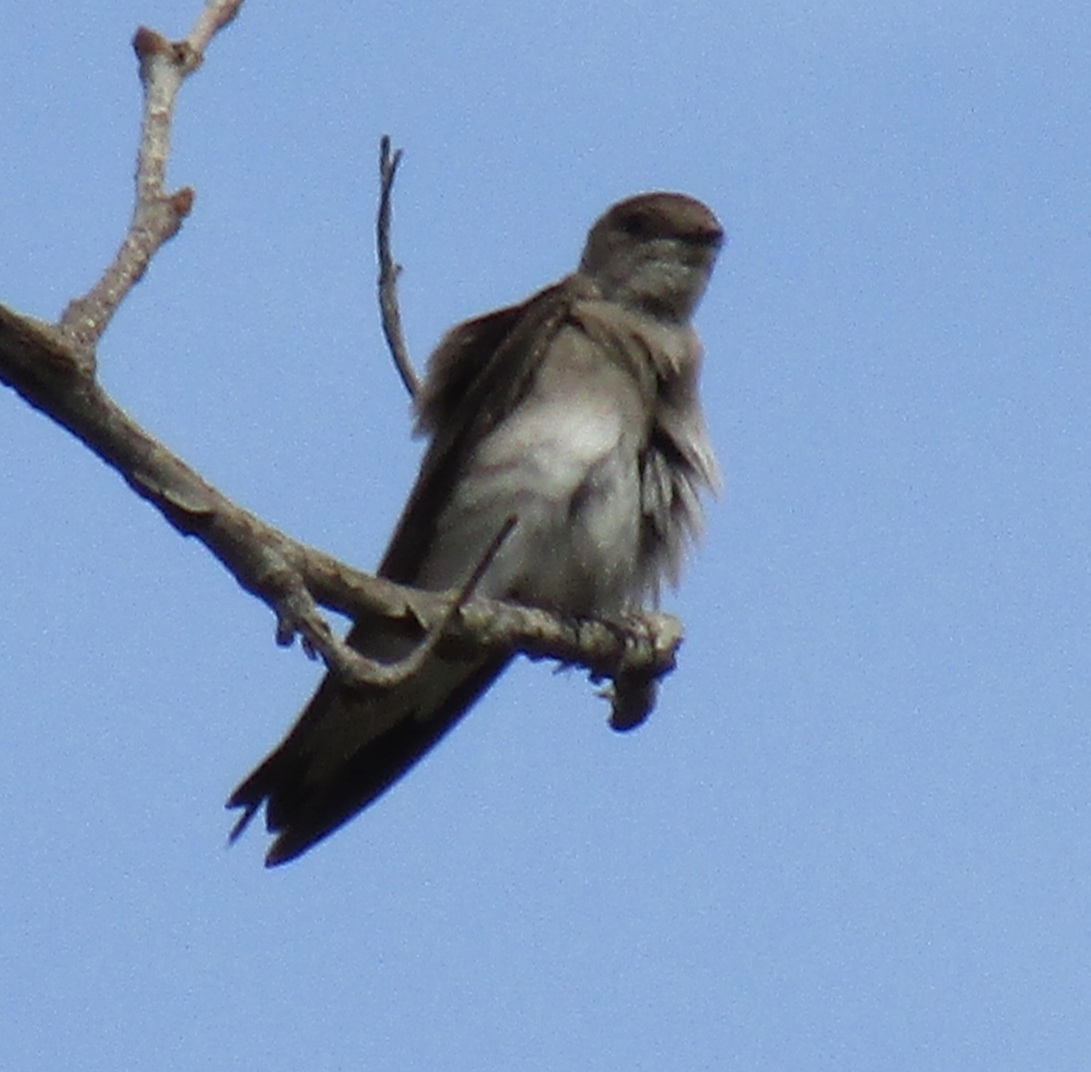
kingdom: Animalia
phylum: Chordata
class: Aves
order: Passeriformes
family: Hirundinidae
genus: Stelgidopteryx
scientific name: Stelgidopteryx serripennis
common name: Northern rough-winged swallow
